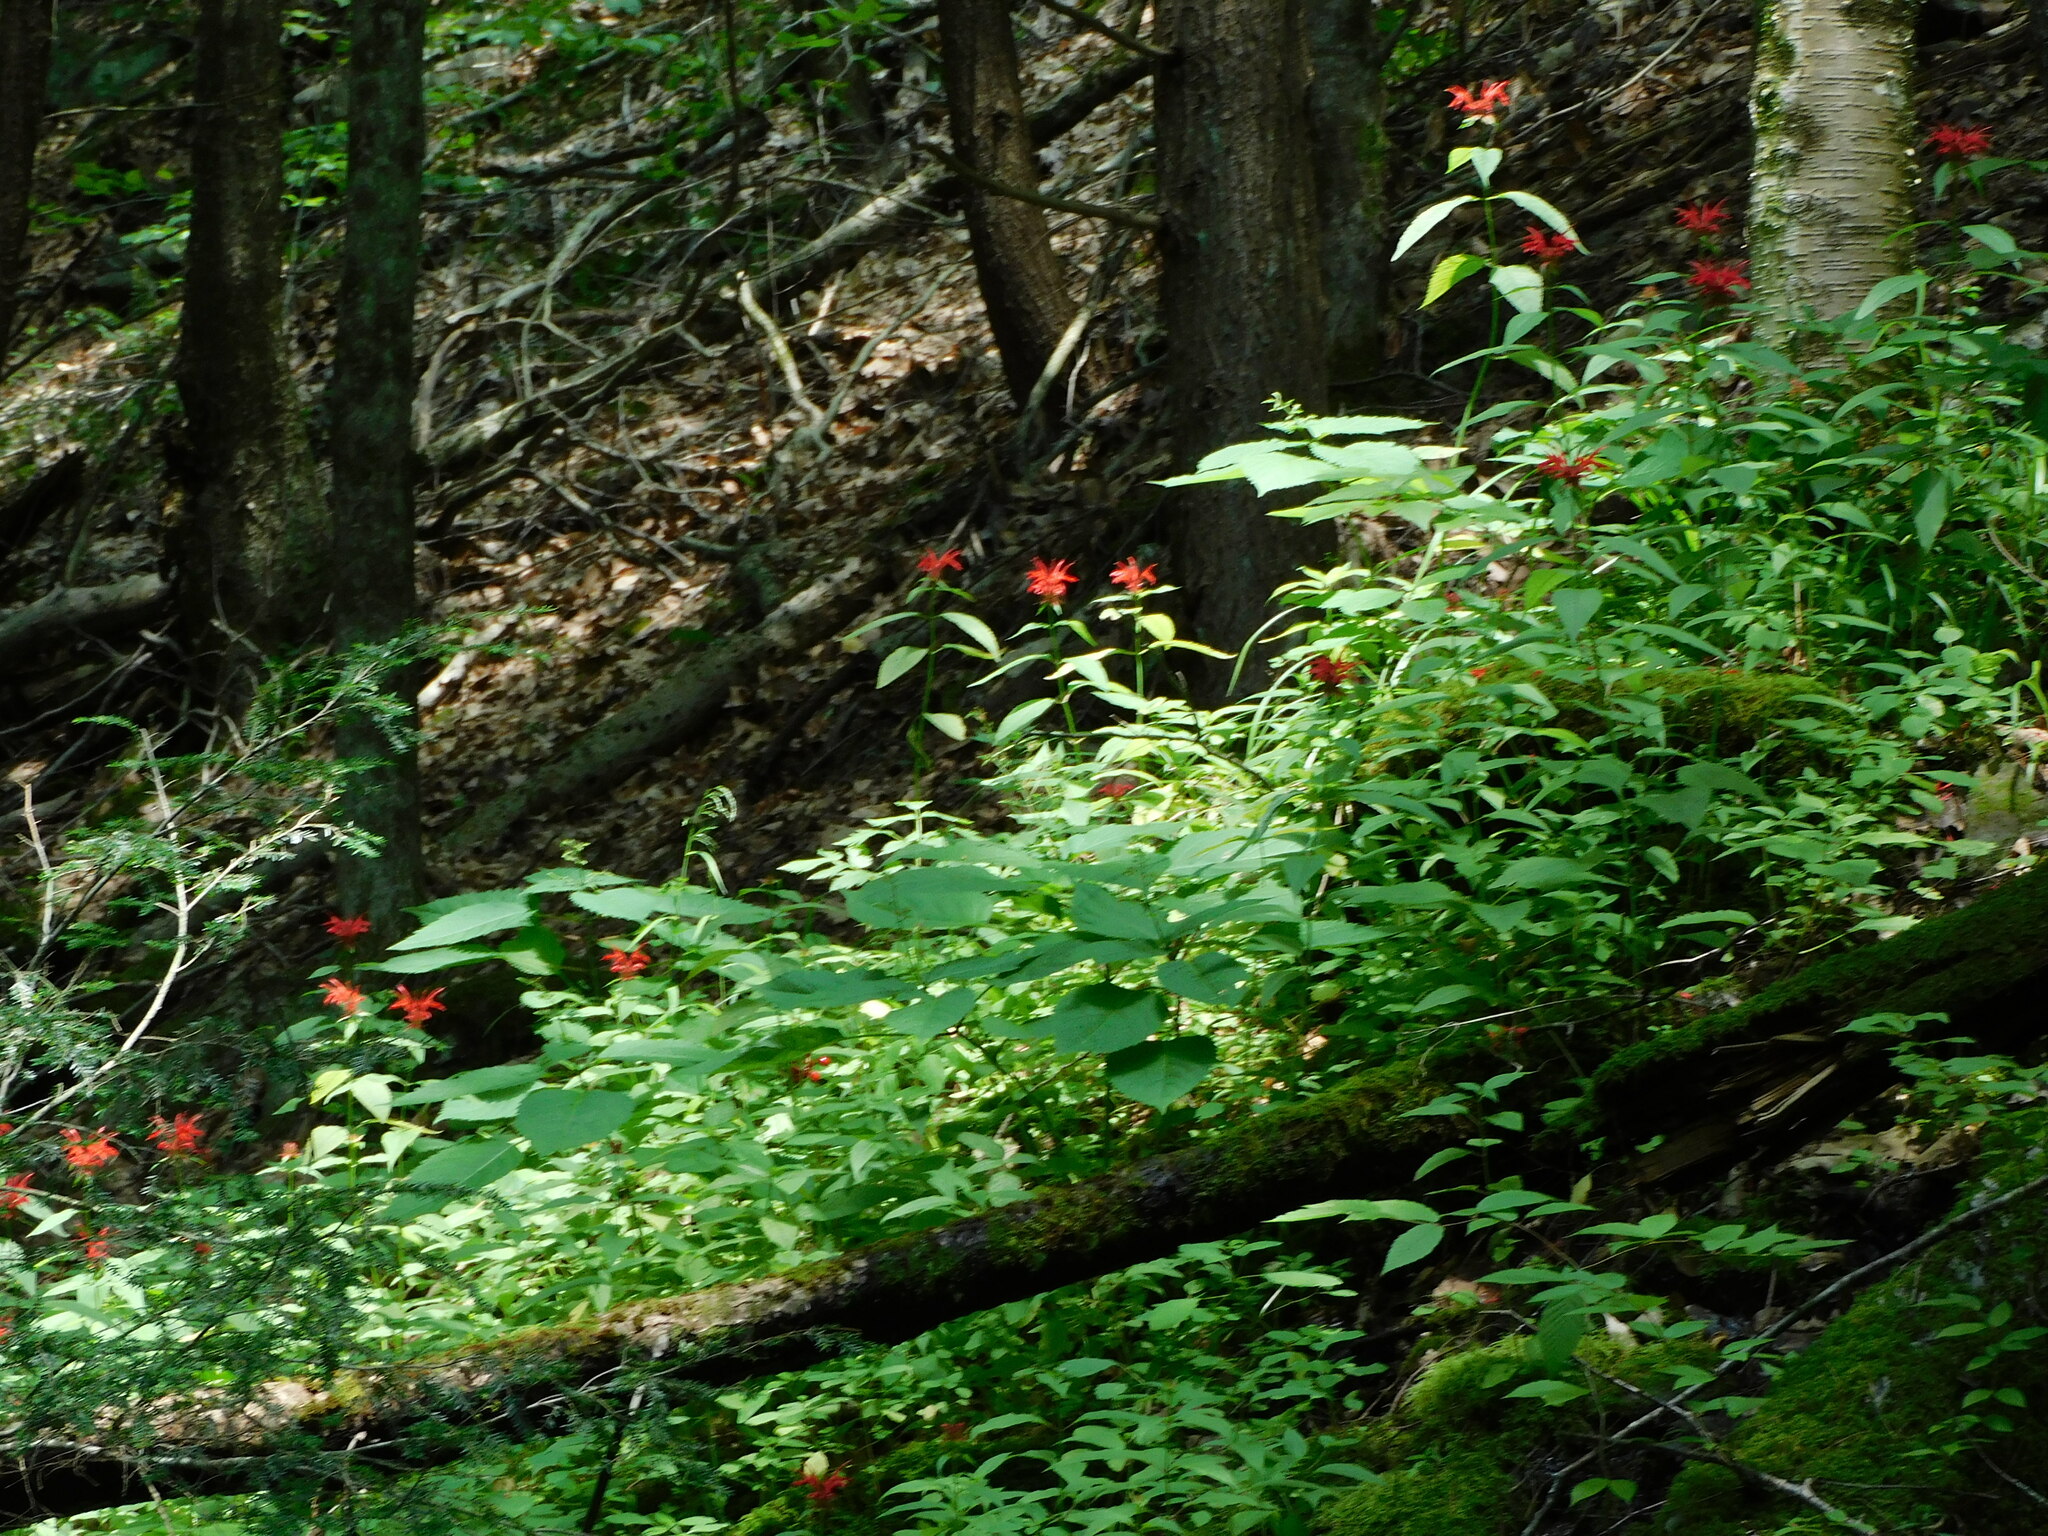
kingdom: Plantae
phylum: Tracheophyta
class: Magnoliopsida
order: Lamiales
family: Lamiaceae
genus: Monarda
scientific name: Monarda didyma
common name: Beebalm
